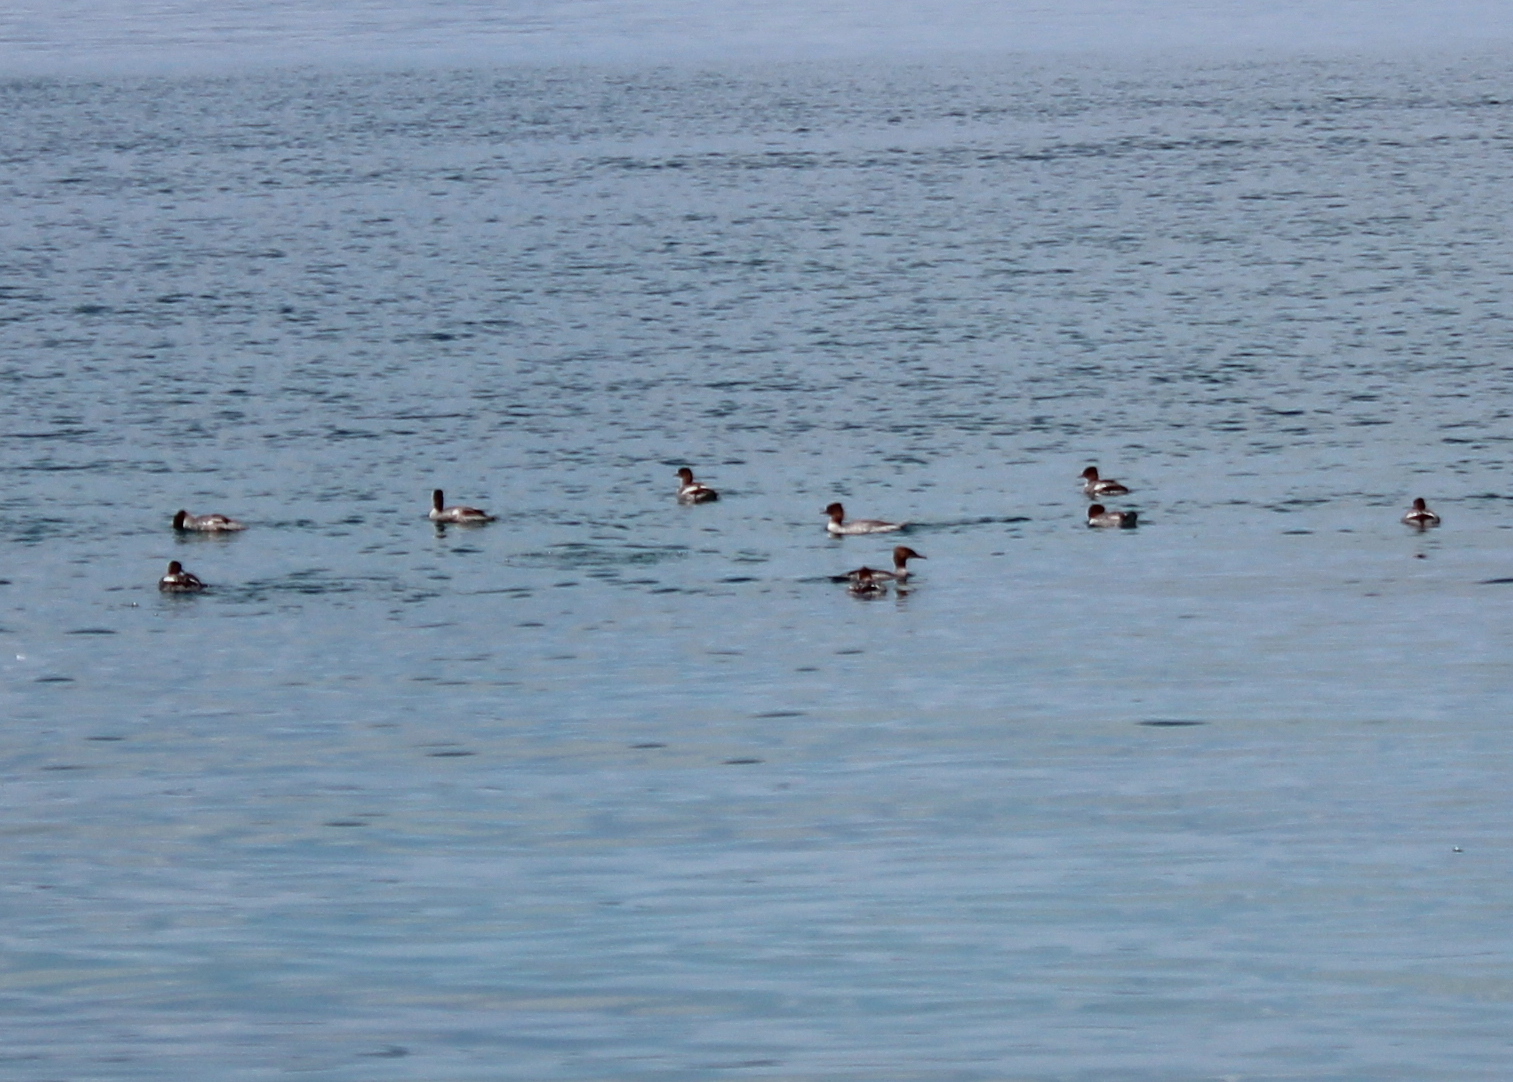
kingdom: Animalia
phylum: Chordata
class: Aves
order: Anseriformes
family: Anatidae
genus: Mergus
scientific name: Mergus merganser
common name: Common merganser
